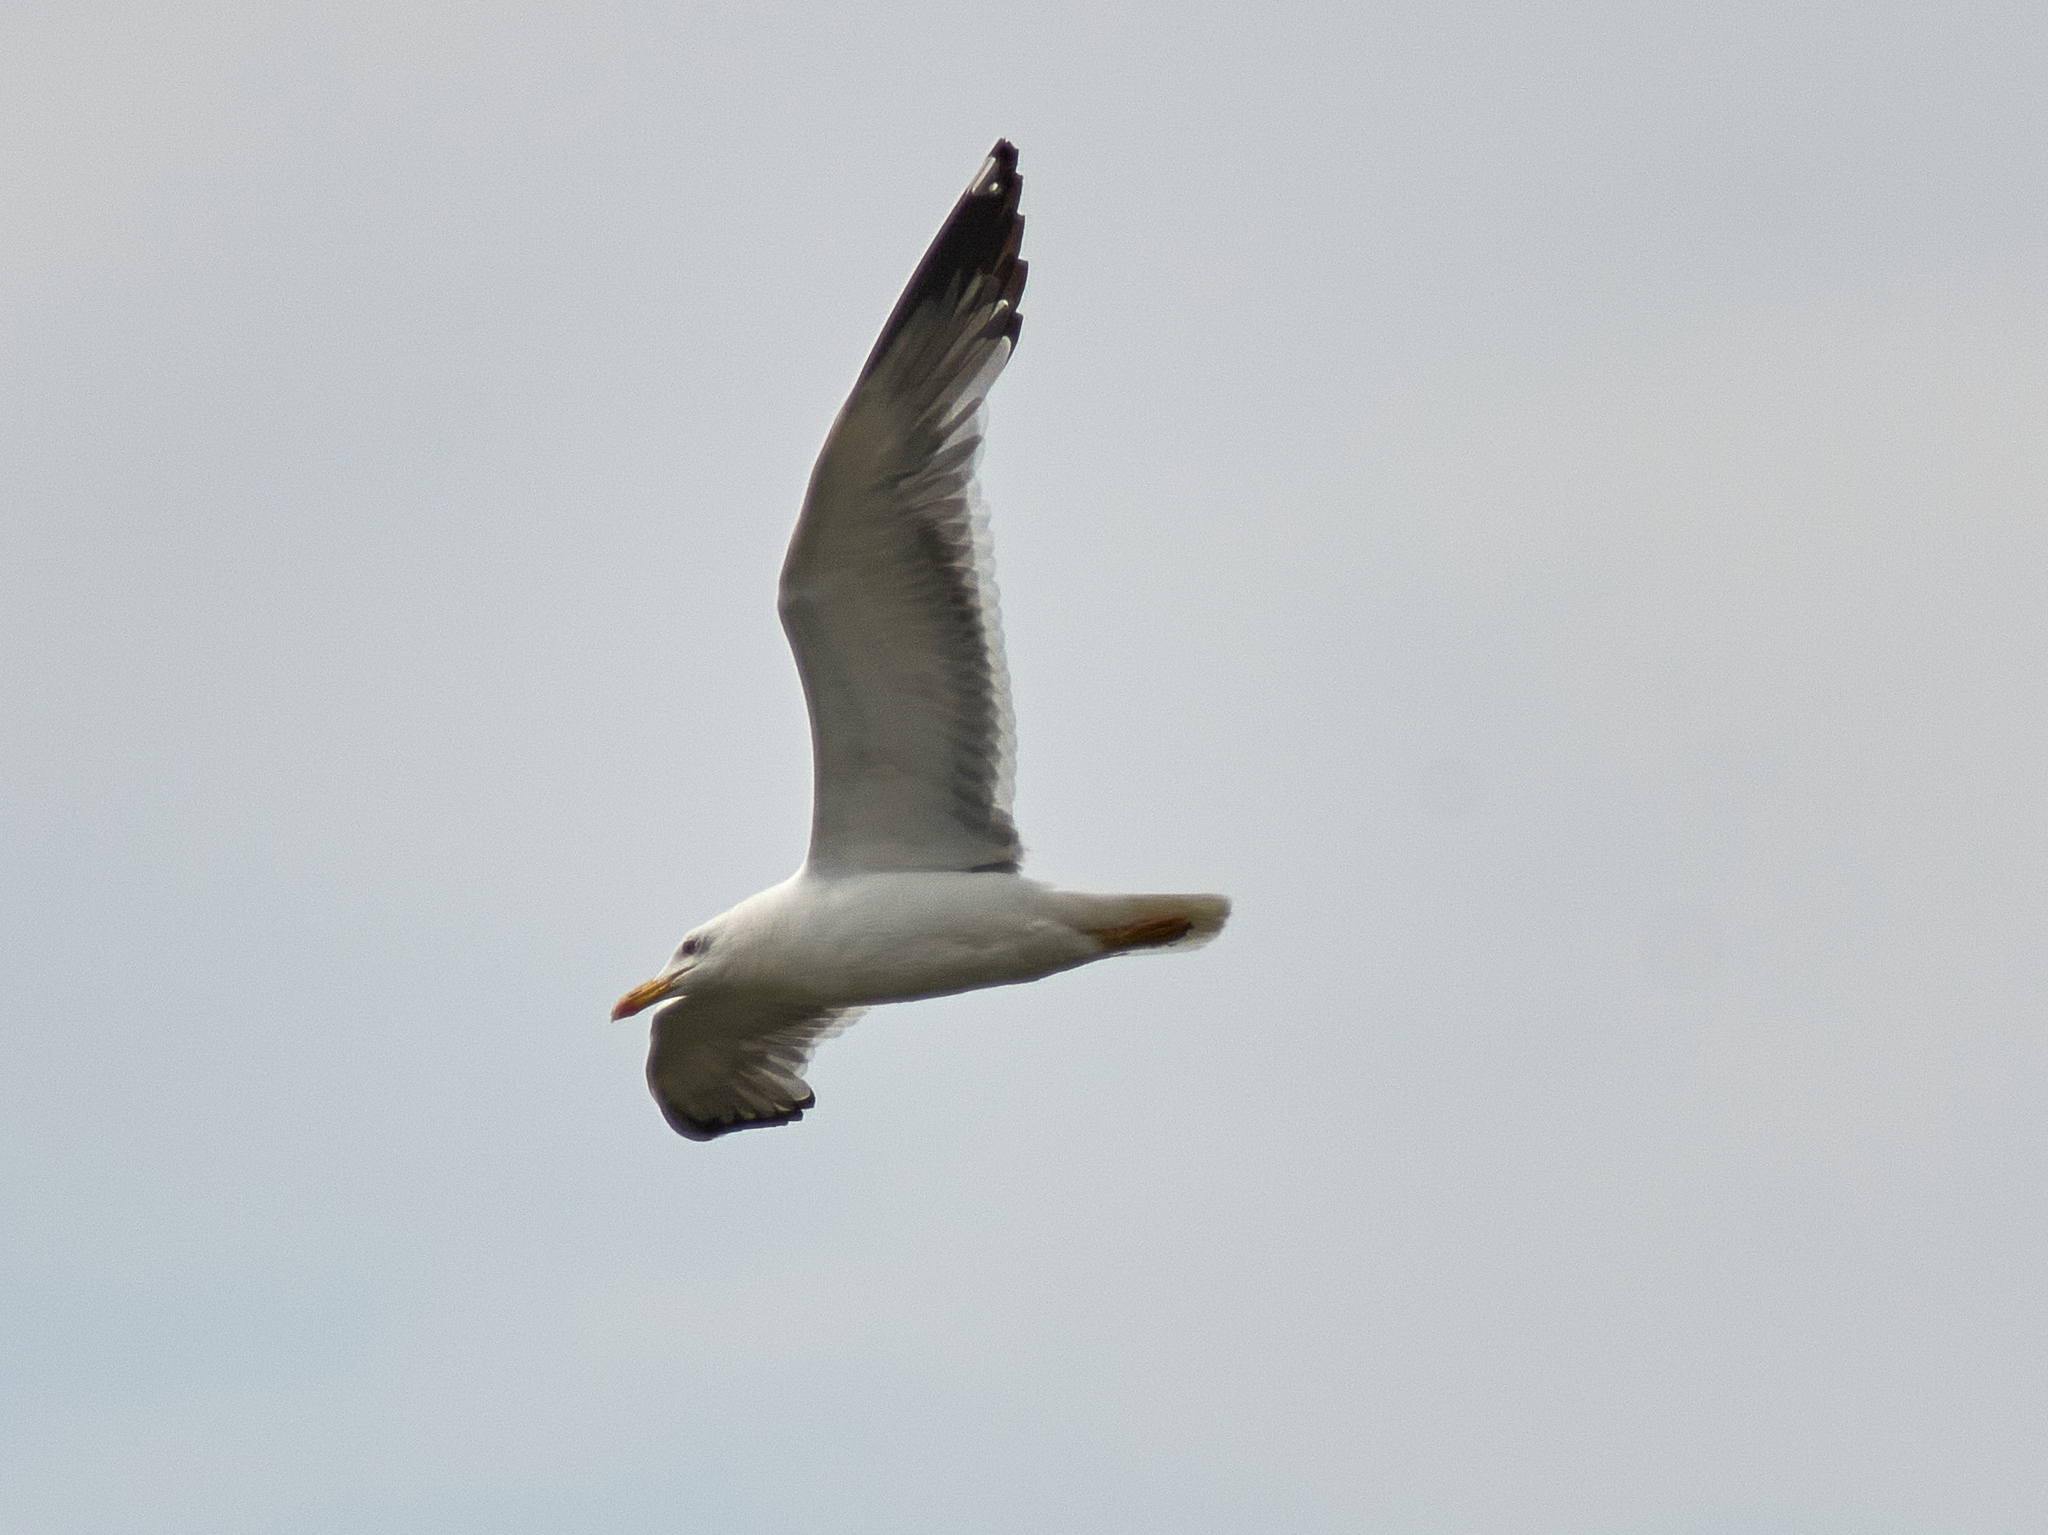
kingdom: Animalia
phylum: Chordata
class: Aves
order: Charadriiformes
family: Laridae
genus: Larus
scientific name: Larus fuscus
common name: Lesser black-backed gull
